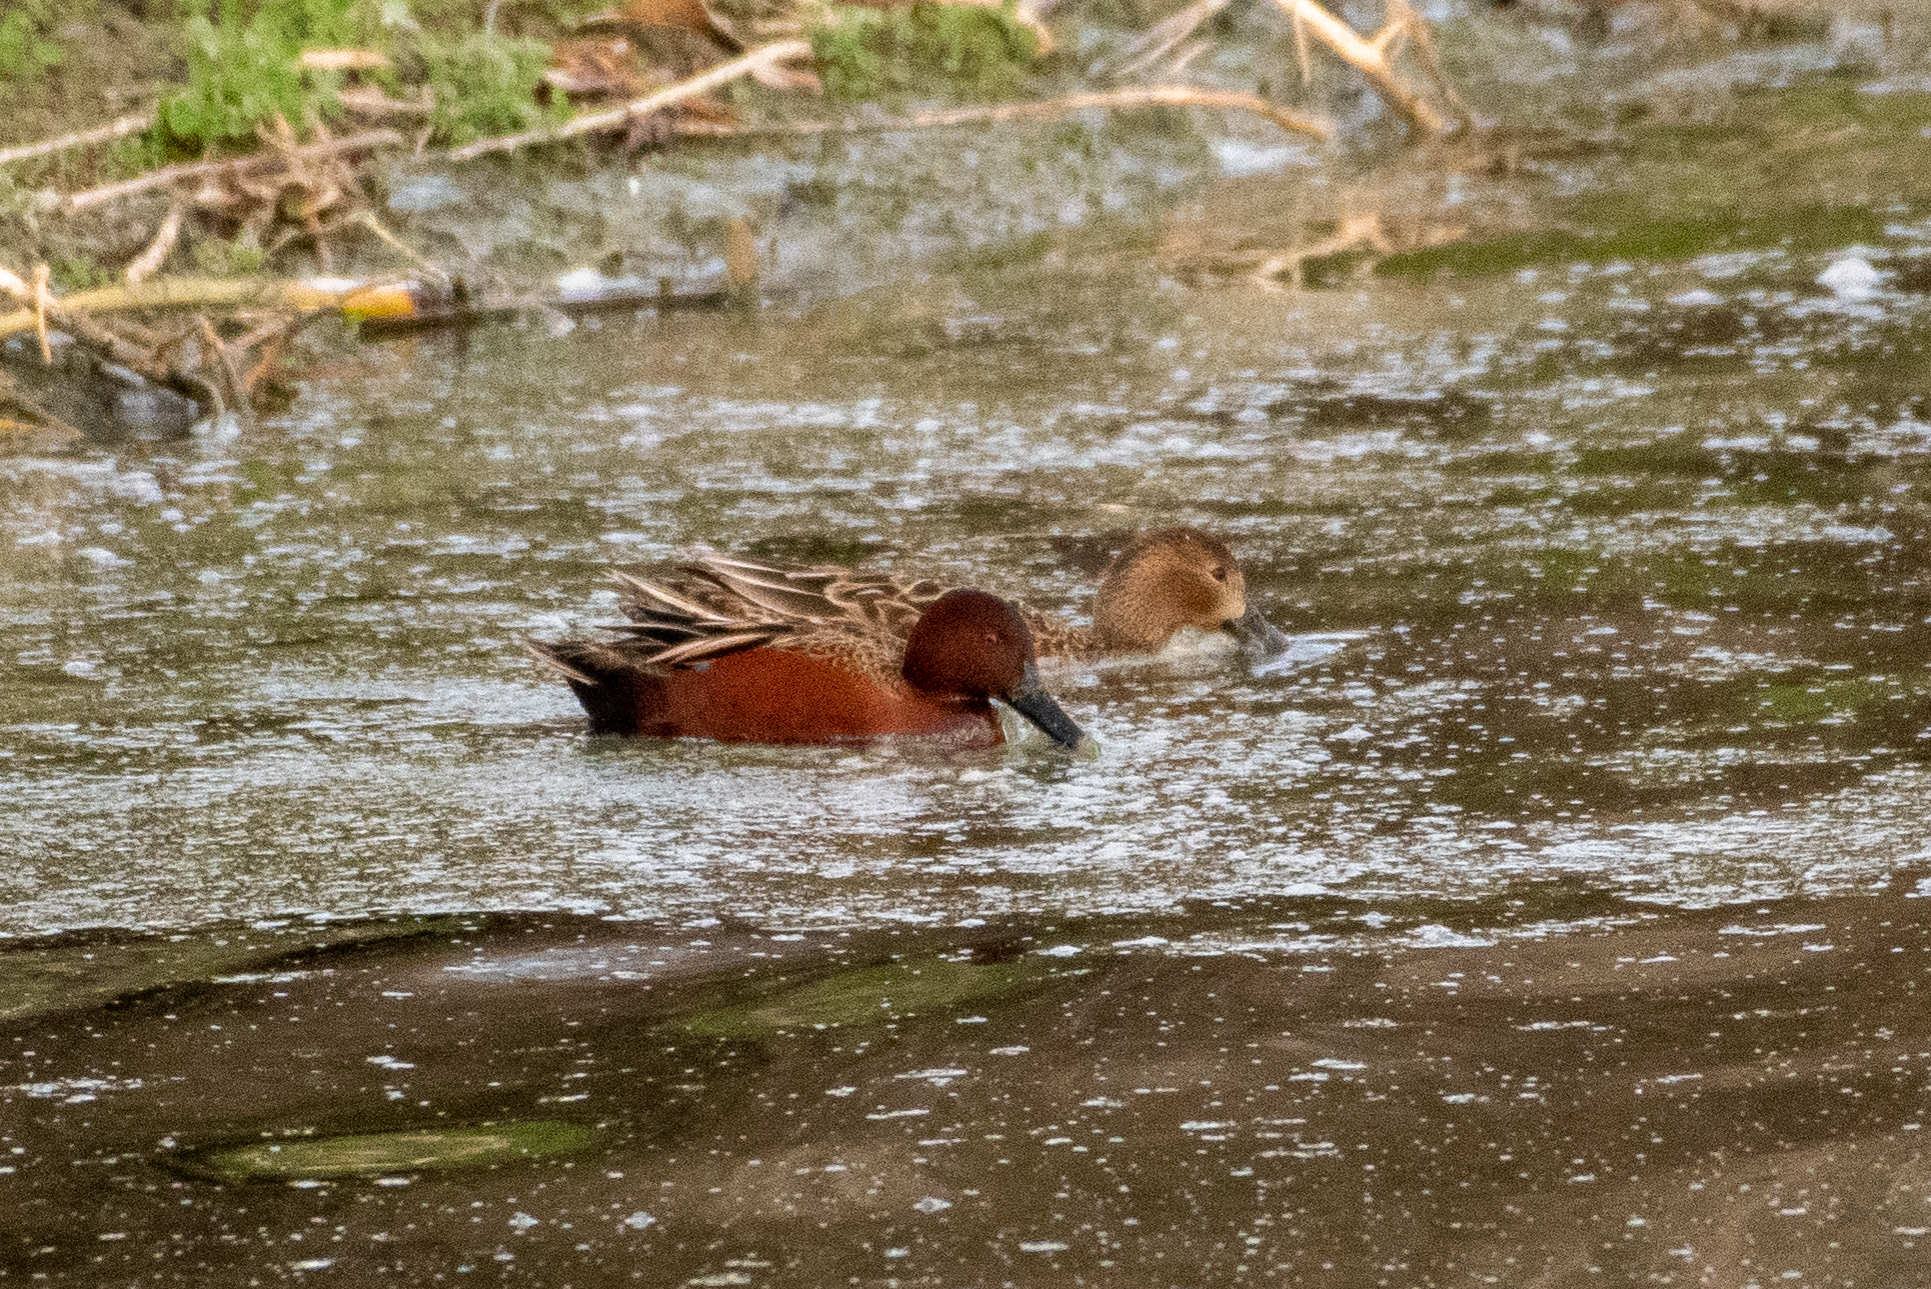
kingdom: Animalia
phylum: Chordata
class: Aves
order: Anseriformes
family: Anatidae
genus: Spatula
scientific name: Spatula cyanoptera
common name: Cinnamon teal
